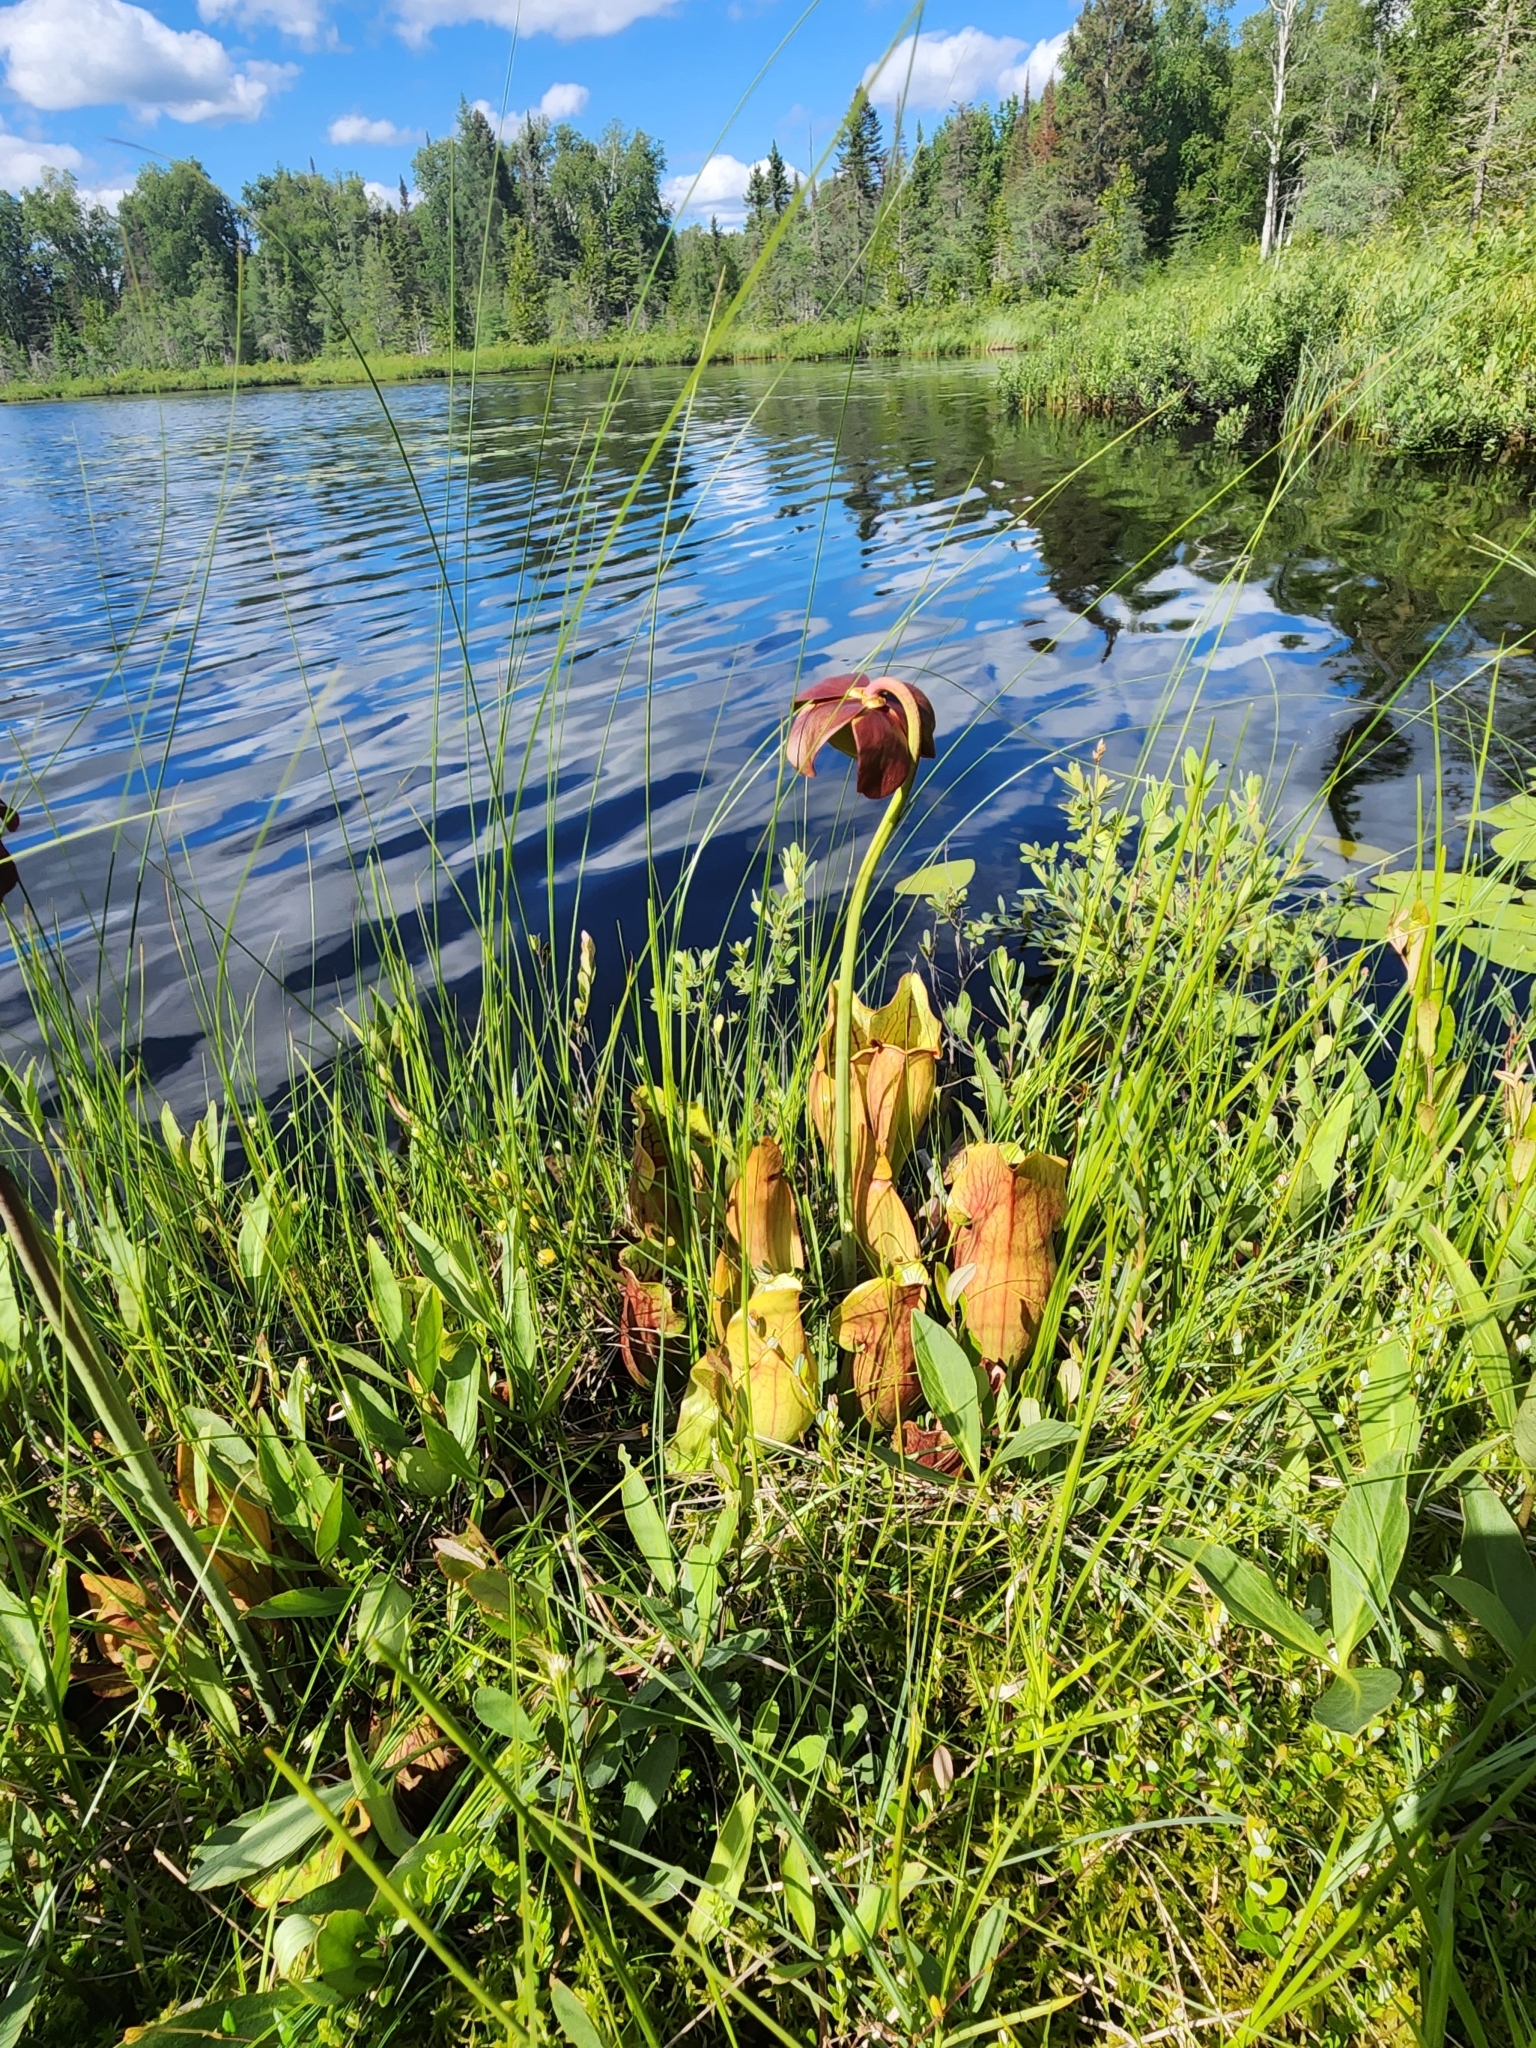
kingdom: Plantae
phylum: Tracheophyta
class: Magnoliopsida
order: Ericales
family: Sarraceniaceae
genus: Sarracenia
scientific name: Sarracenia purpurea
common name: Pitcherplant
